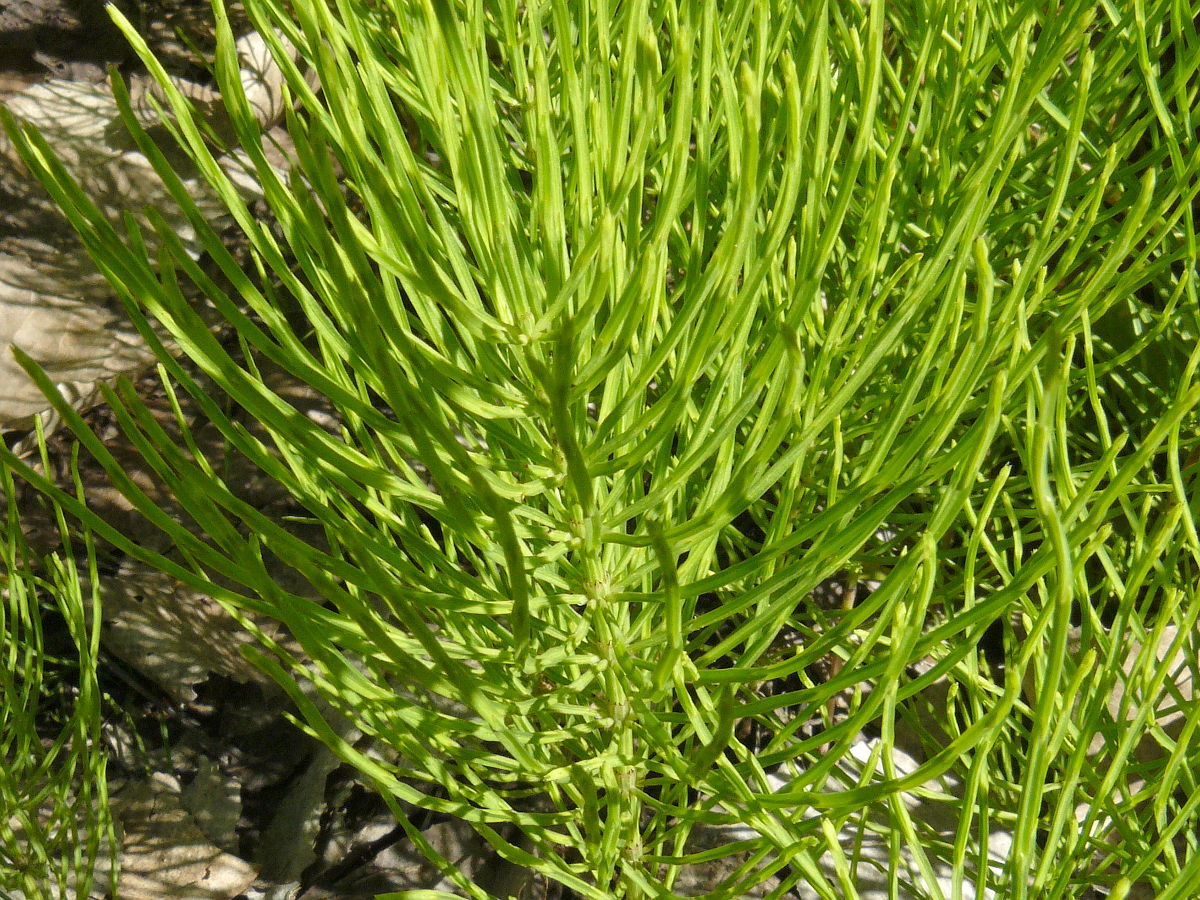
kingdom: Plantae
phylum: Tracheophyta
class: Polypodiopsida
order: Equisetales
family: Equisetaceae
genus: Equisetum
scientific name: Equisetum arvense
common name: Field horsetail
